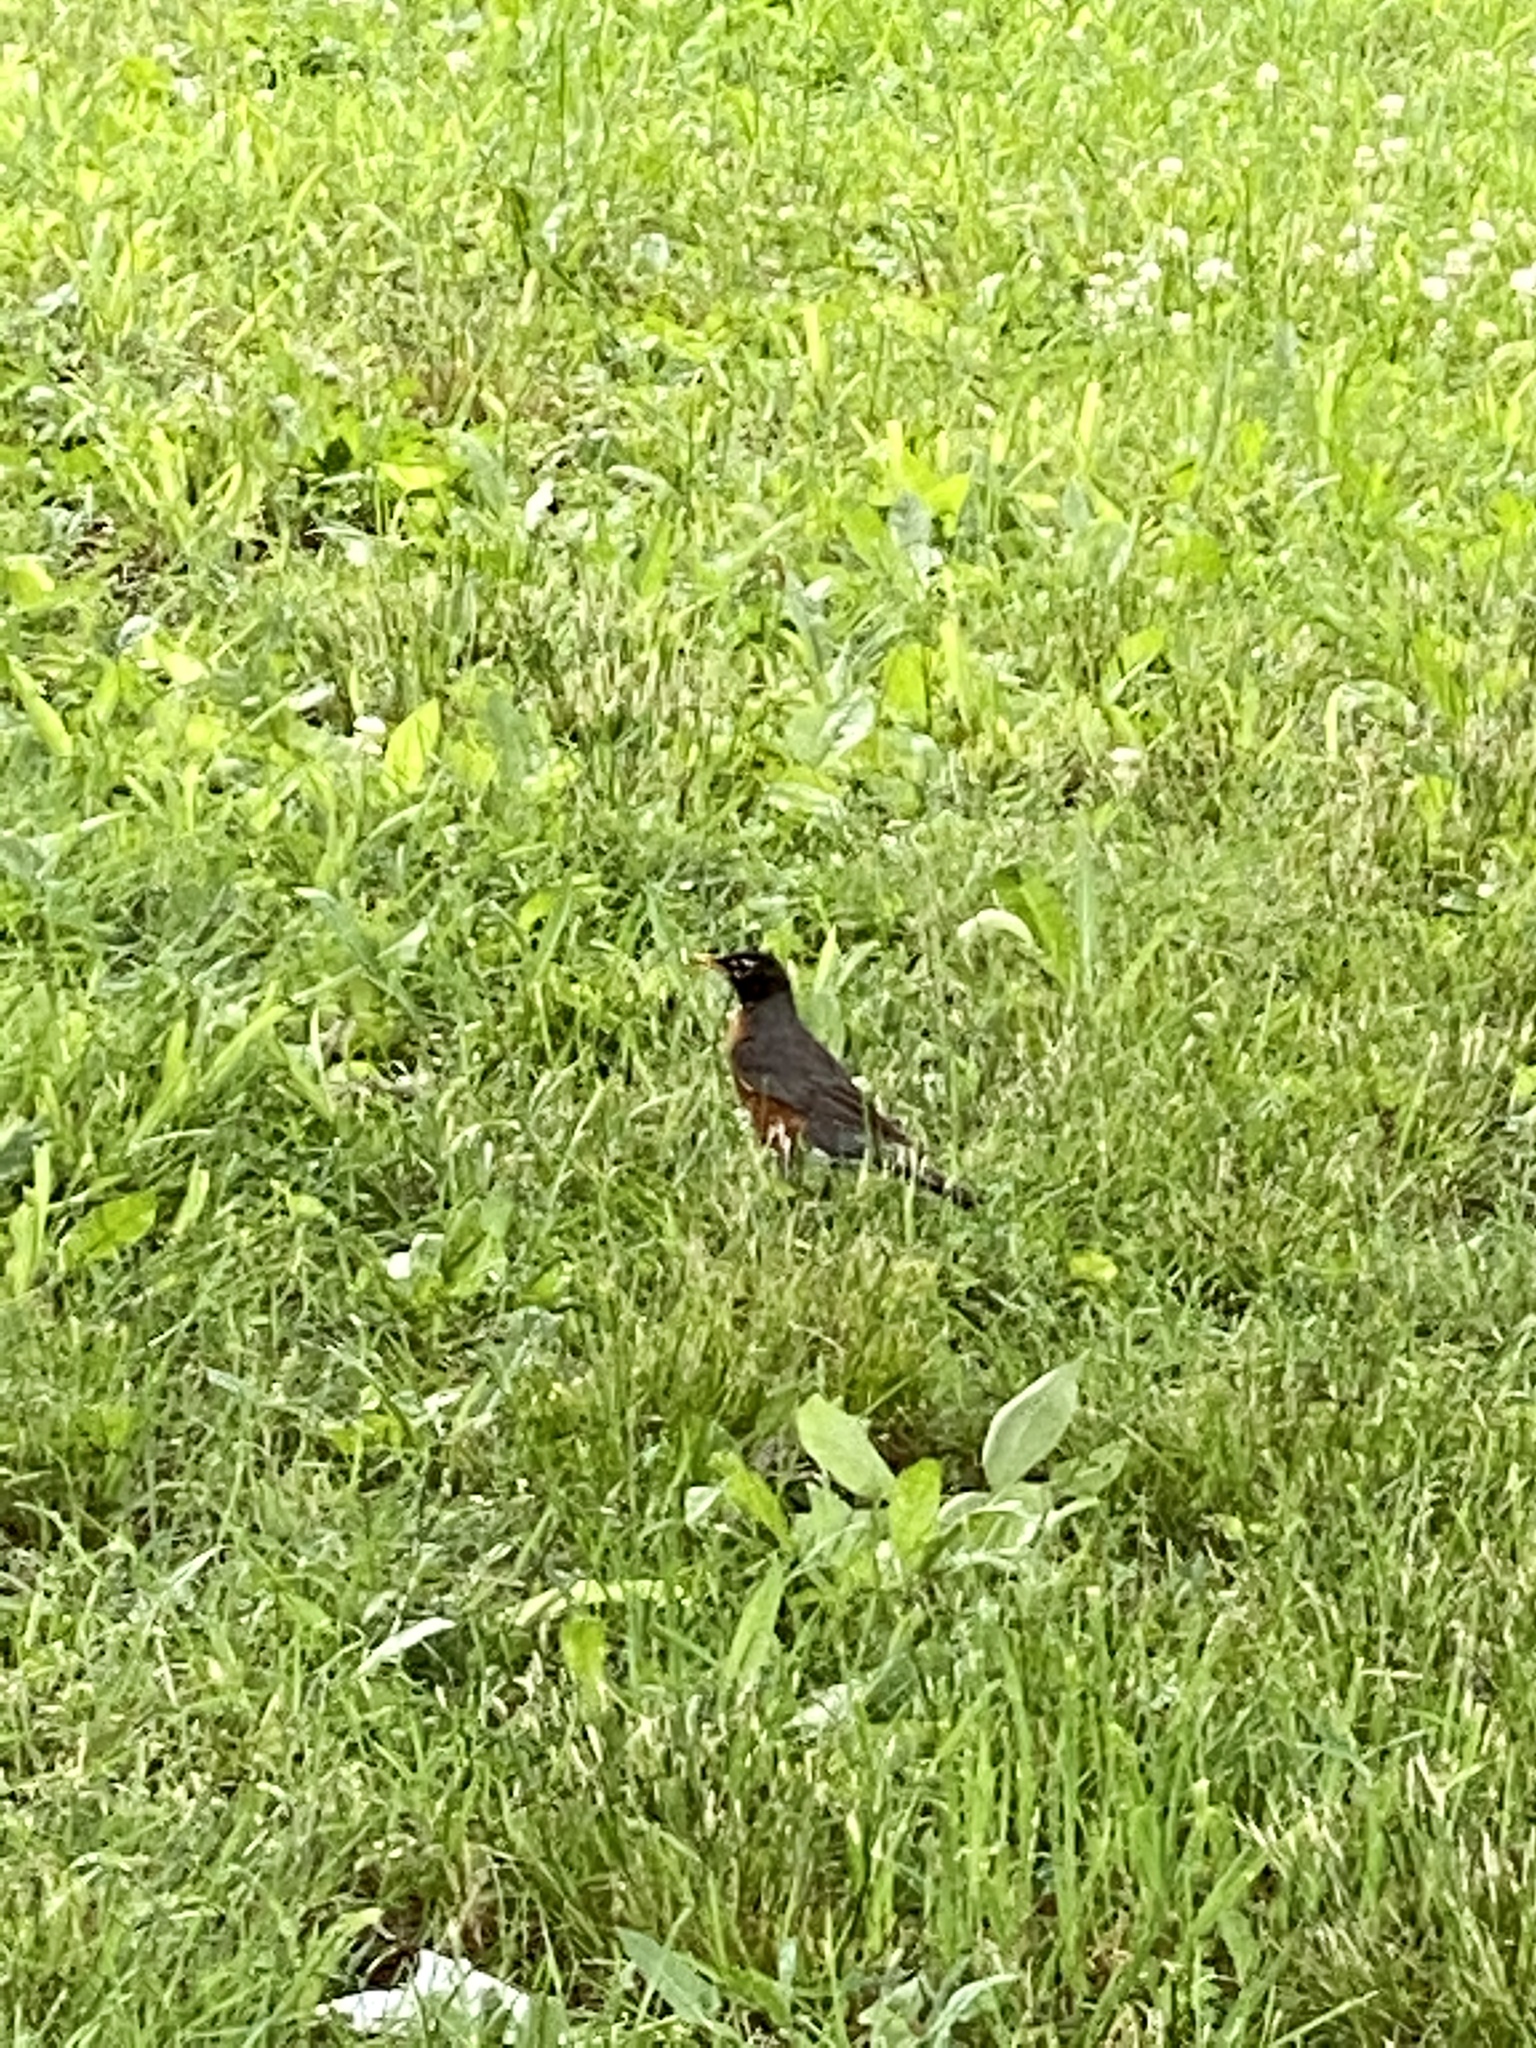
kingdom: Animalia
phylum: Chordata
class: Aves
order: Passeriformes
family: Turdidae
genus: Turdus
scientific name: Turdus migratorius
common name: American robin
